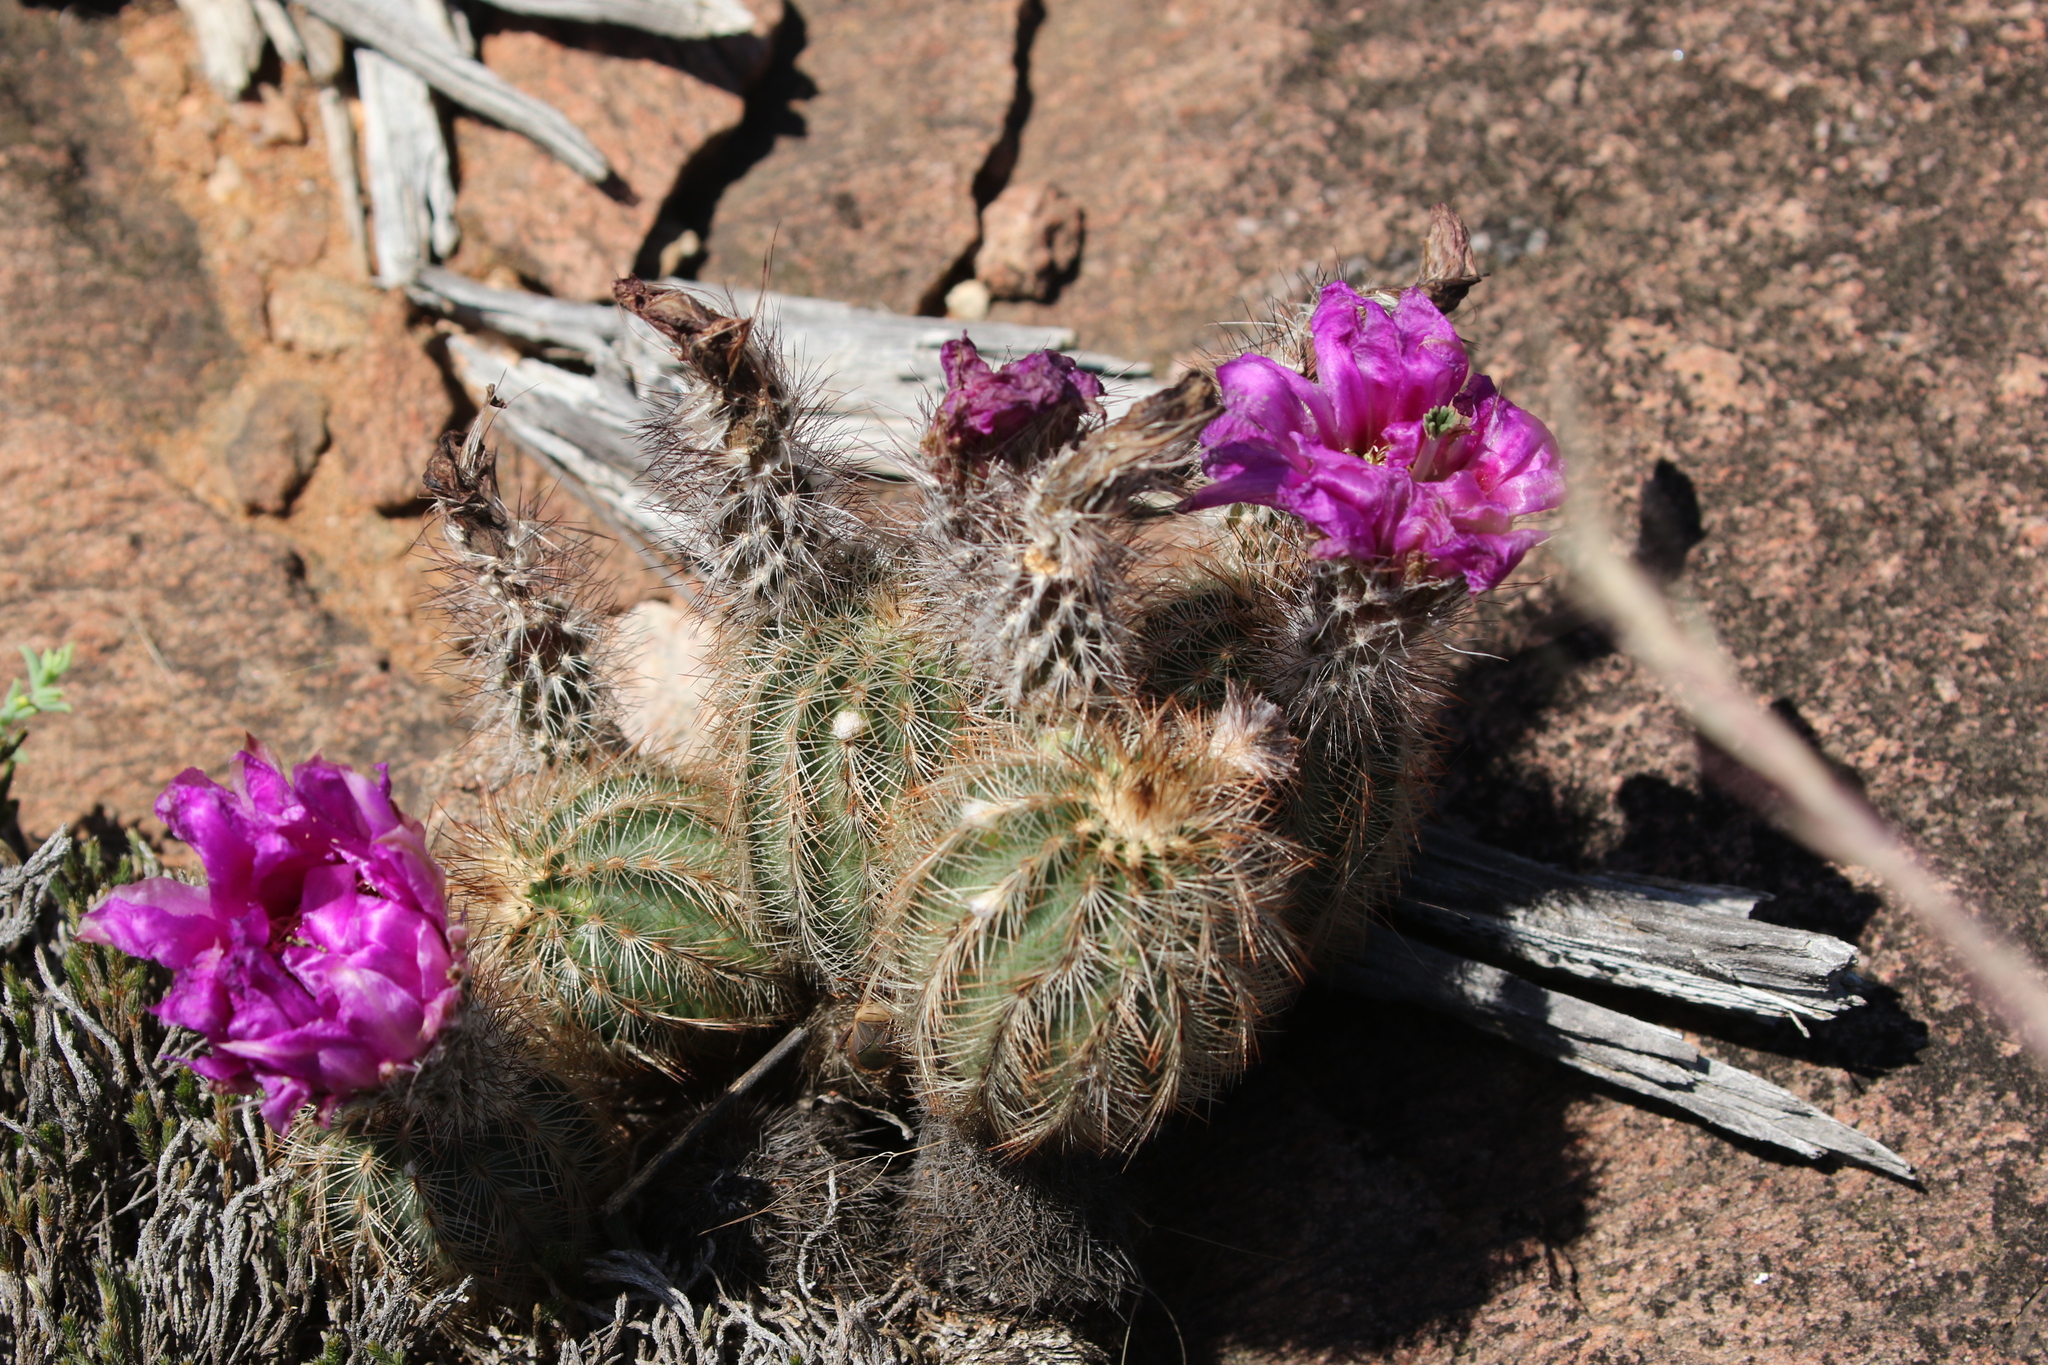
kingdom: Plantae
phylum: Tracheophyta
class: Magnoliopsida
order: Caryophyllales
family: Cactaceae
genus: Echinocereus
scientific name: Echinocereus reichenbachii
